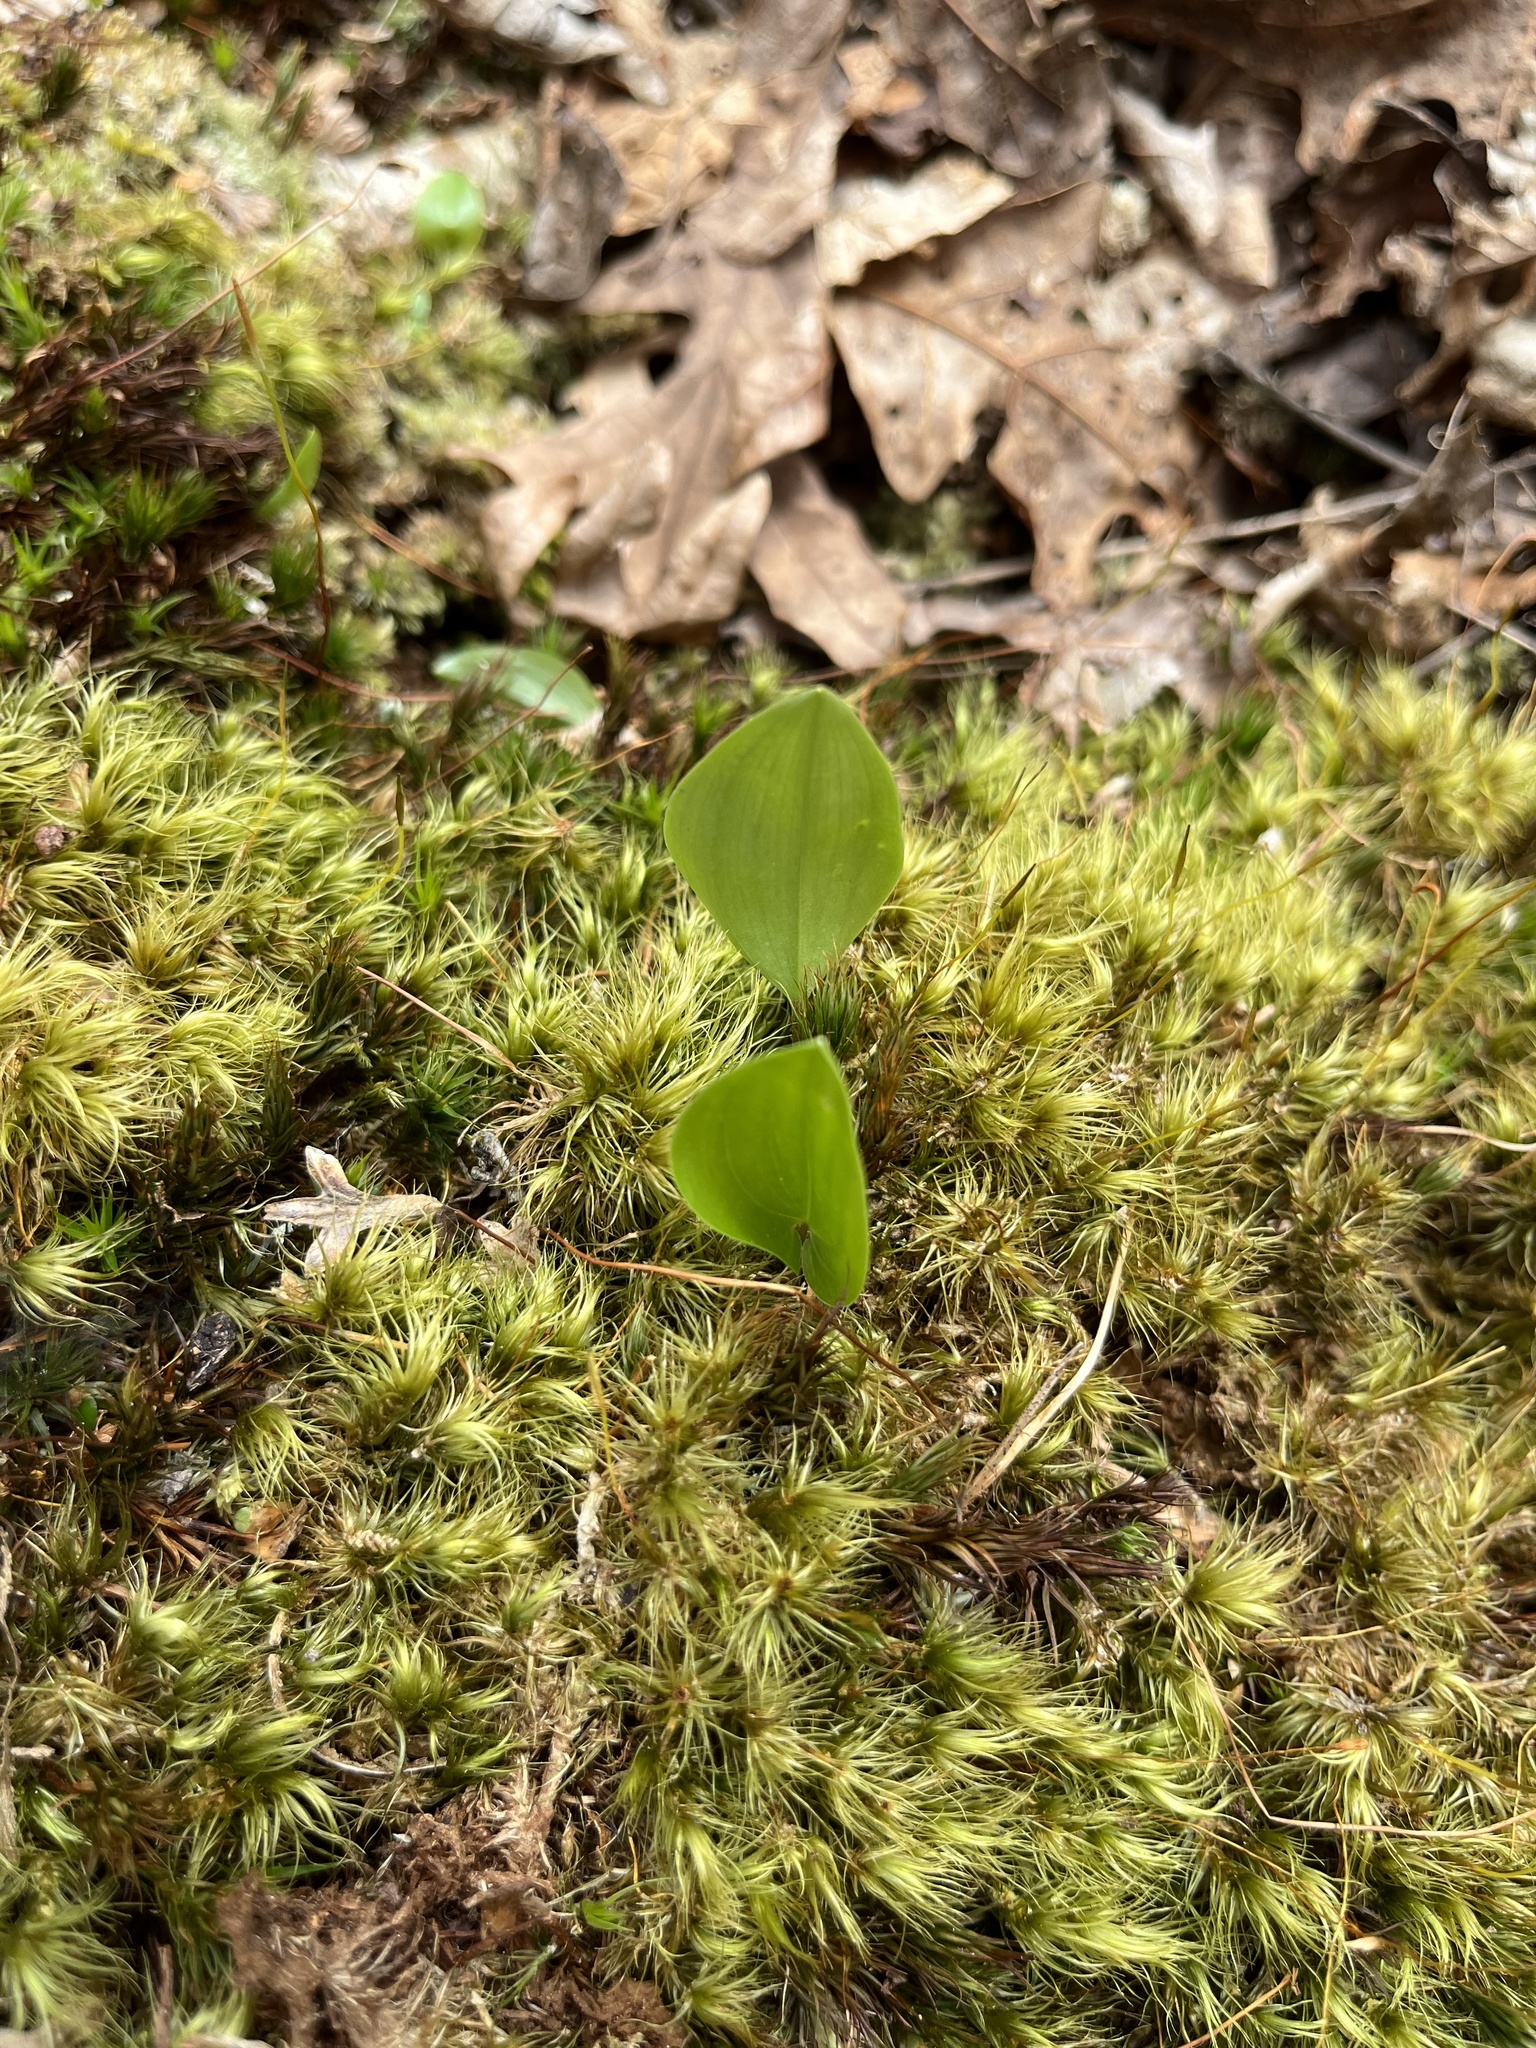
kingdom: Plantae
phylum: Tracheophyta
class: Liliopsida
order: Asparagales
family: Asparagaceae
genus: Maianthemum
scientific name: Maianthemum canadense
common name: False lily-of-the-valley
